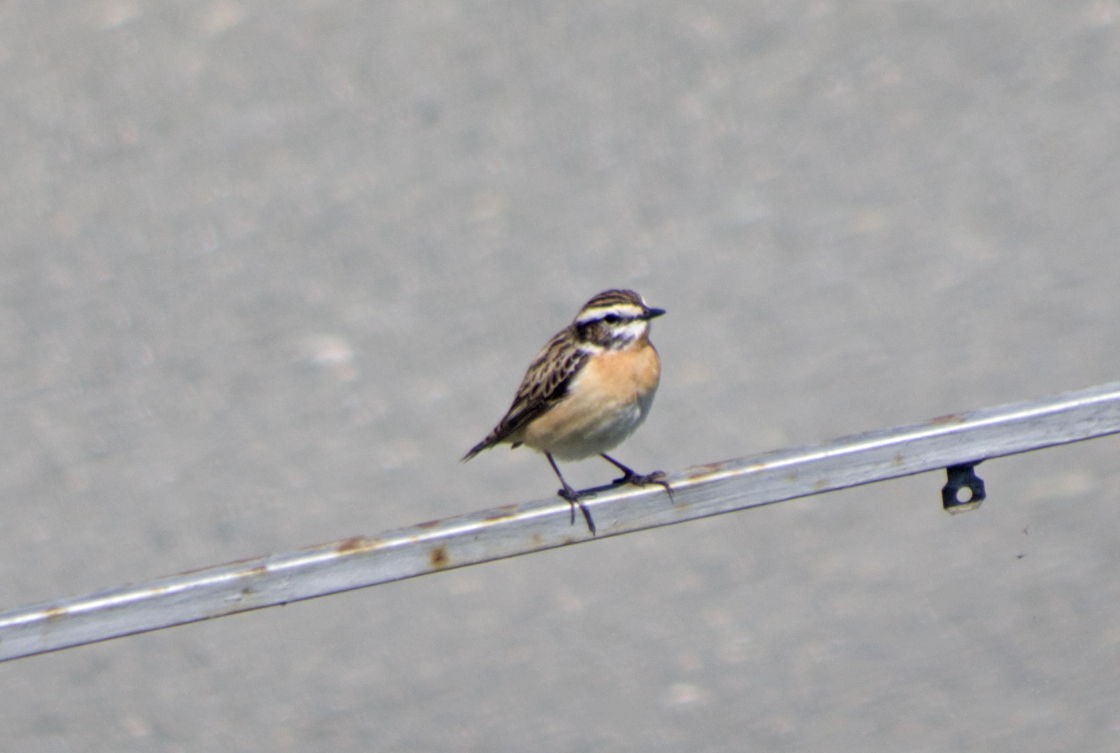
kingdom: Animalia
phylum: Chordata
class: Aves
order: Passeriformes
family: Muscicapidae
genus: Saxicola
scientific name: Saxicola rubetra
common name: Whinchat
